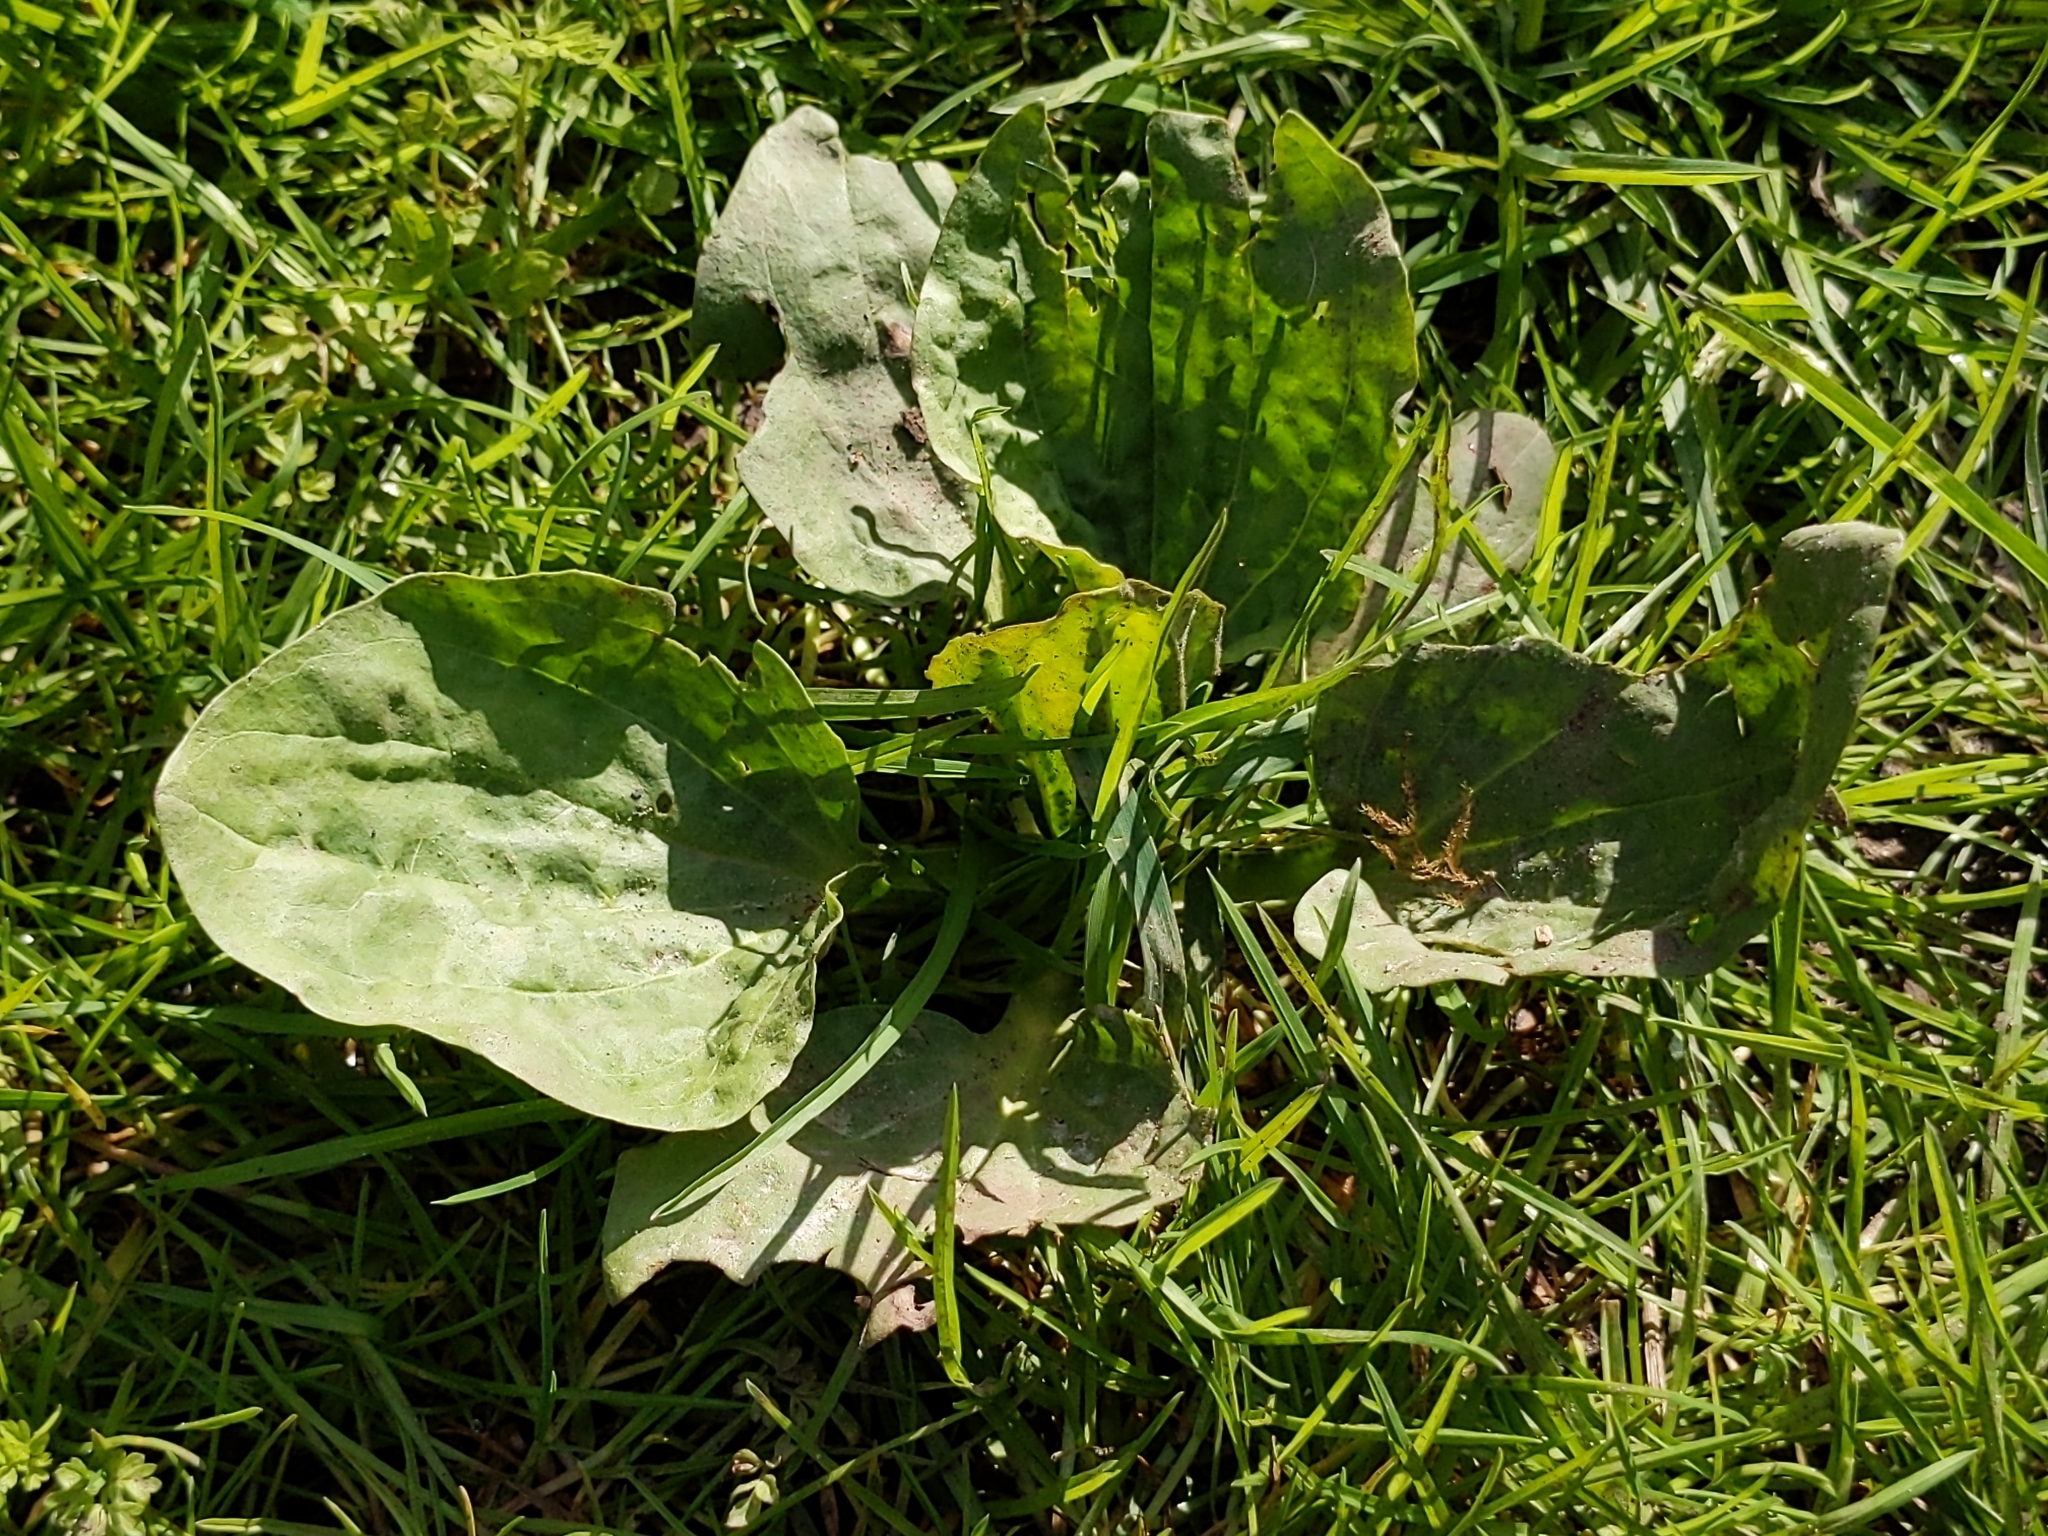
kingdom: Plantae
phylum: Tracheophyta
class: Magnoliopsida
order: Lamiales
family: Plantaginaceae
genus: Plantago
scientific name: Plantago major
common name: Common plantain
